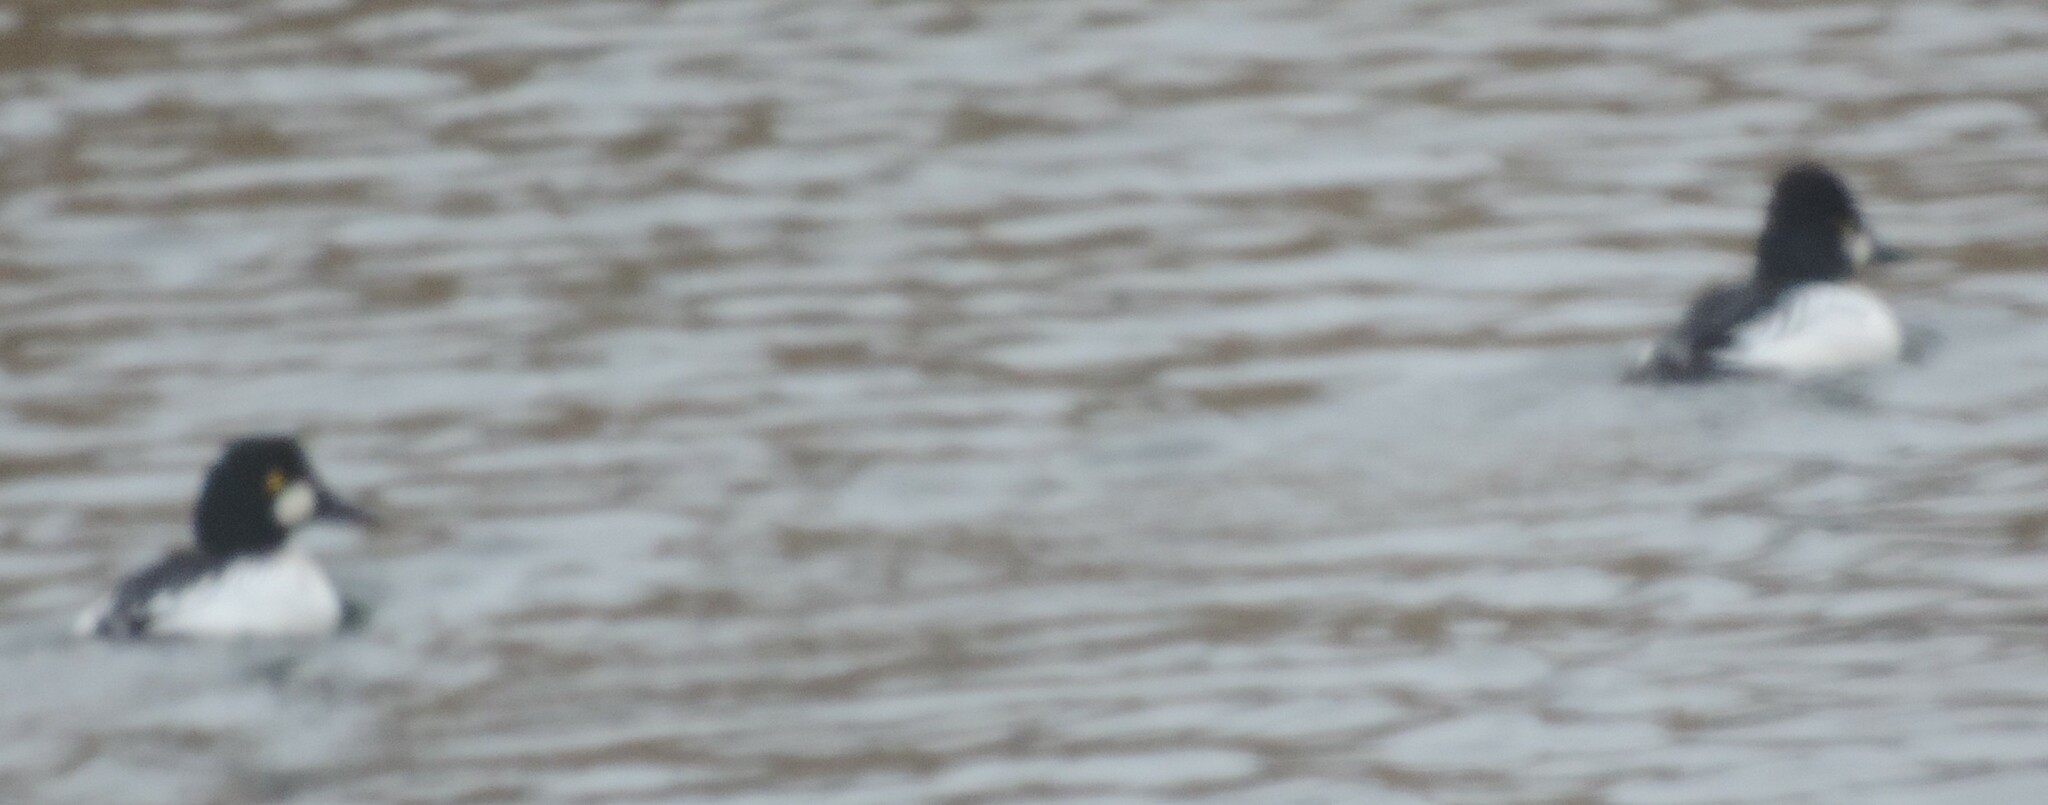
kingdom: Animalia
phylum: Chordata
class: Aves
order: Anseriformes
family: Anatidae
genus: Bucephala
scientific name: Bucephala clangula
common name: Common goldeneye
